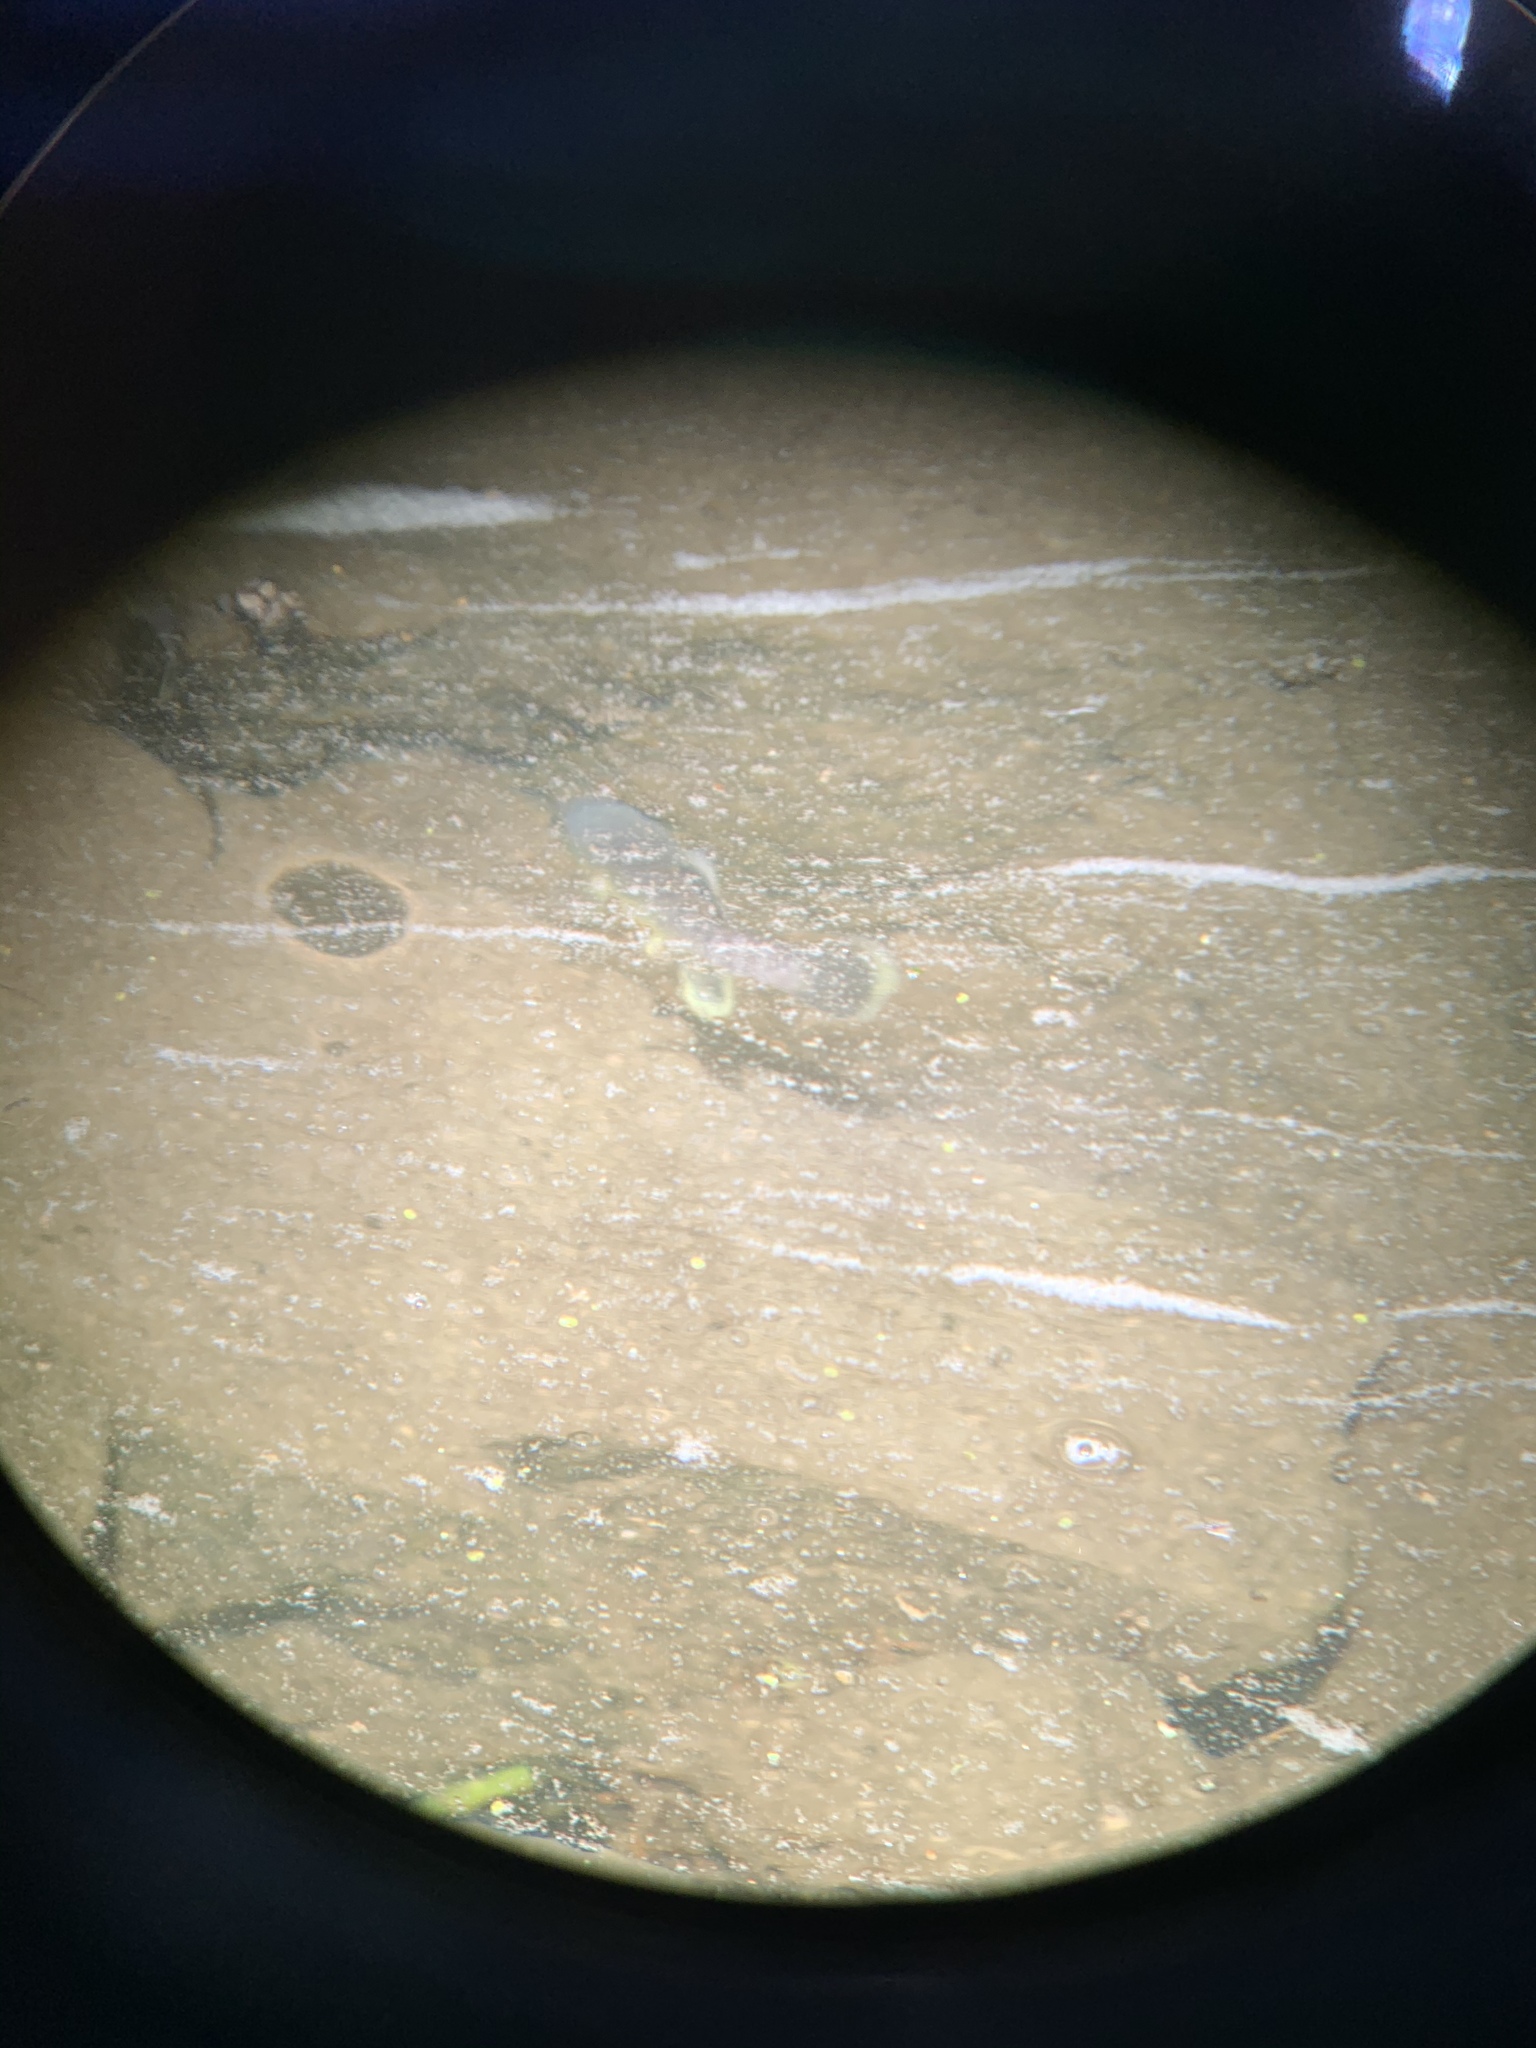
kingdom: Animalia
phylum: Chordata
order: Cyprinodontiformes
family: Fundulidae
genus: Fundulus
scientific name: Fundulus heteroclitus
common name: Mummichog
